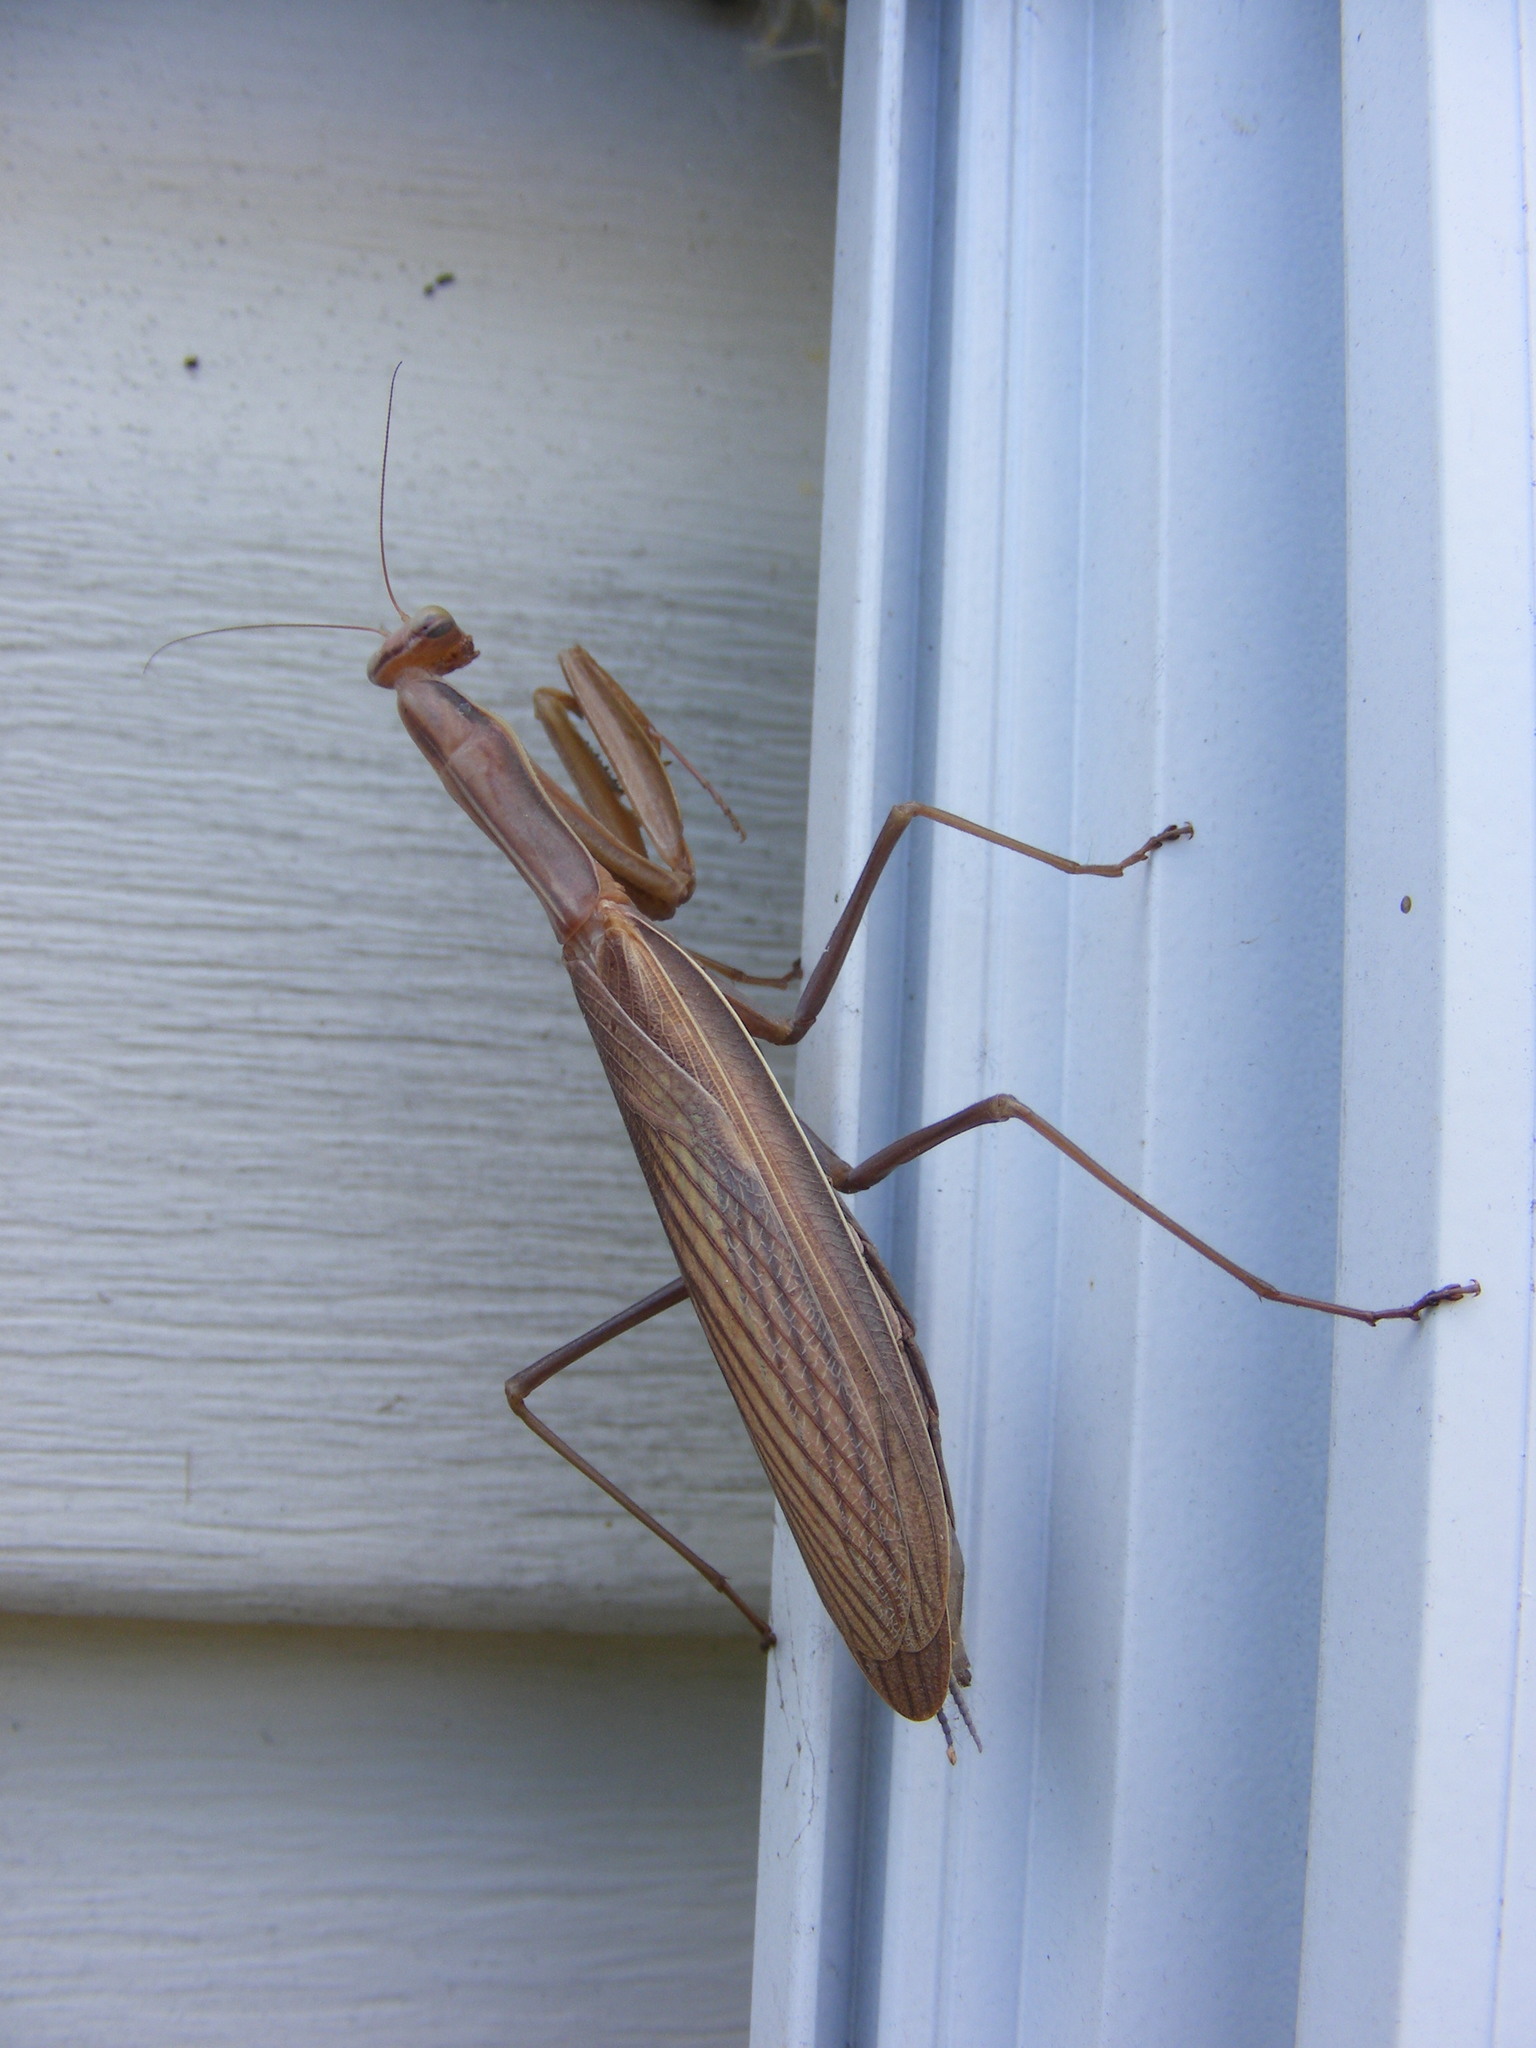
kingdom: Animalia
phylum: Arthropoda
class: Insecta
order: Mantodea
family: Mantidae
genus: Mantis
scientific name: Mantis religiosa
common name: Praying mantis
